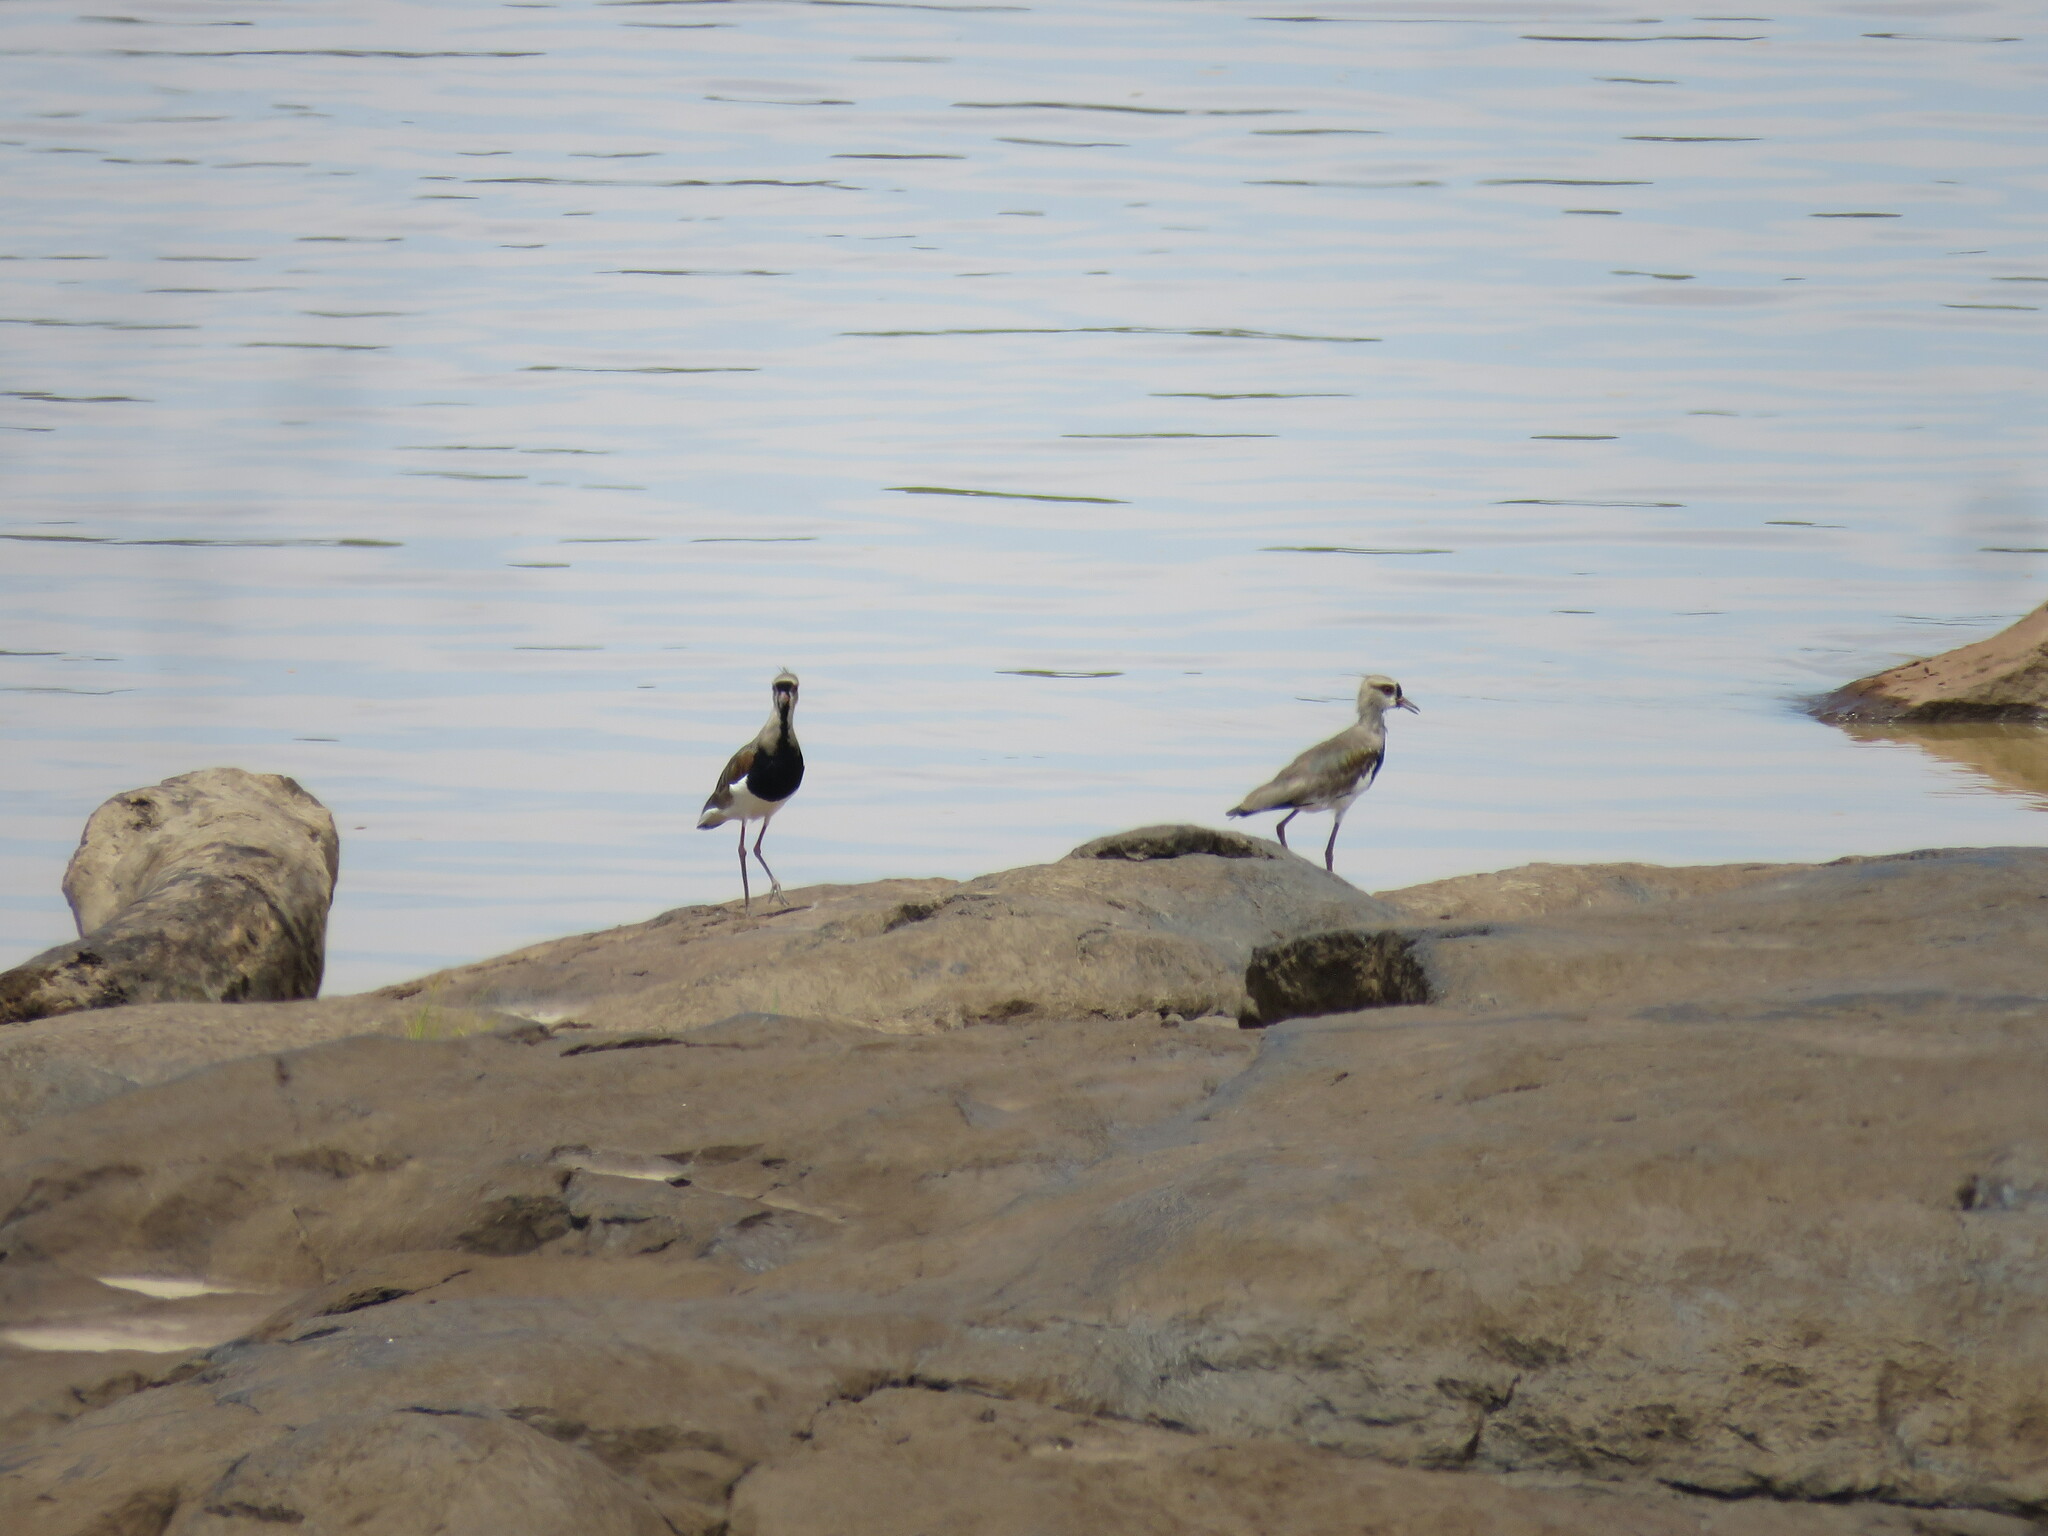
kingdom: Animalia
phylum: Chordata
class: Aves
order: Charadriiformes
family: Charadriidae
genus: Vanellus
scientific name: Vanellus chilensis
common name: Southern lapwing
